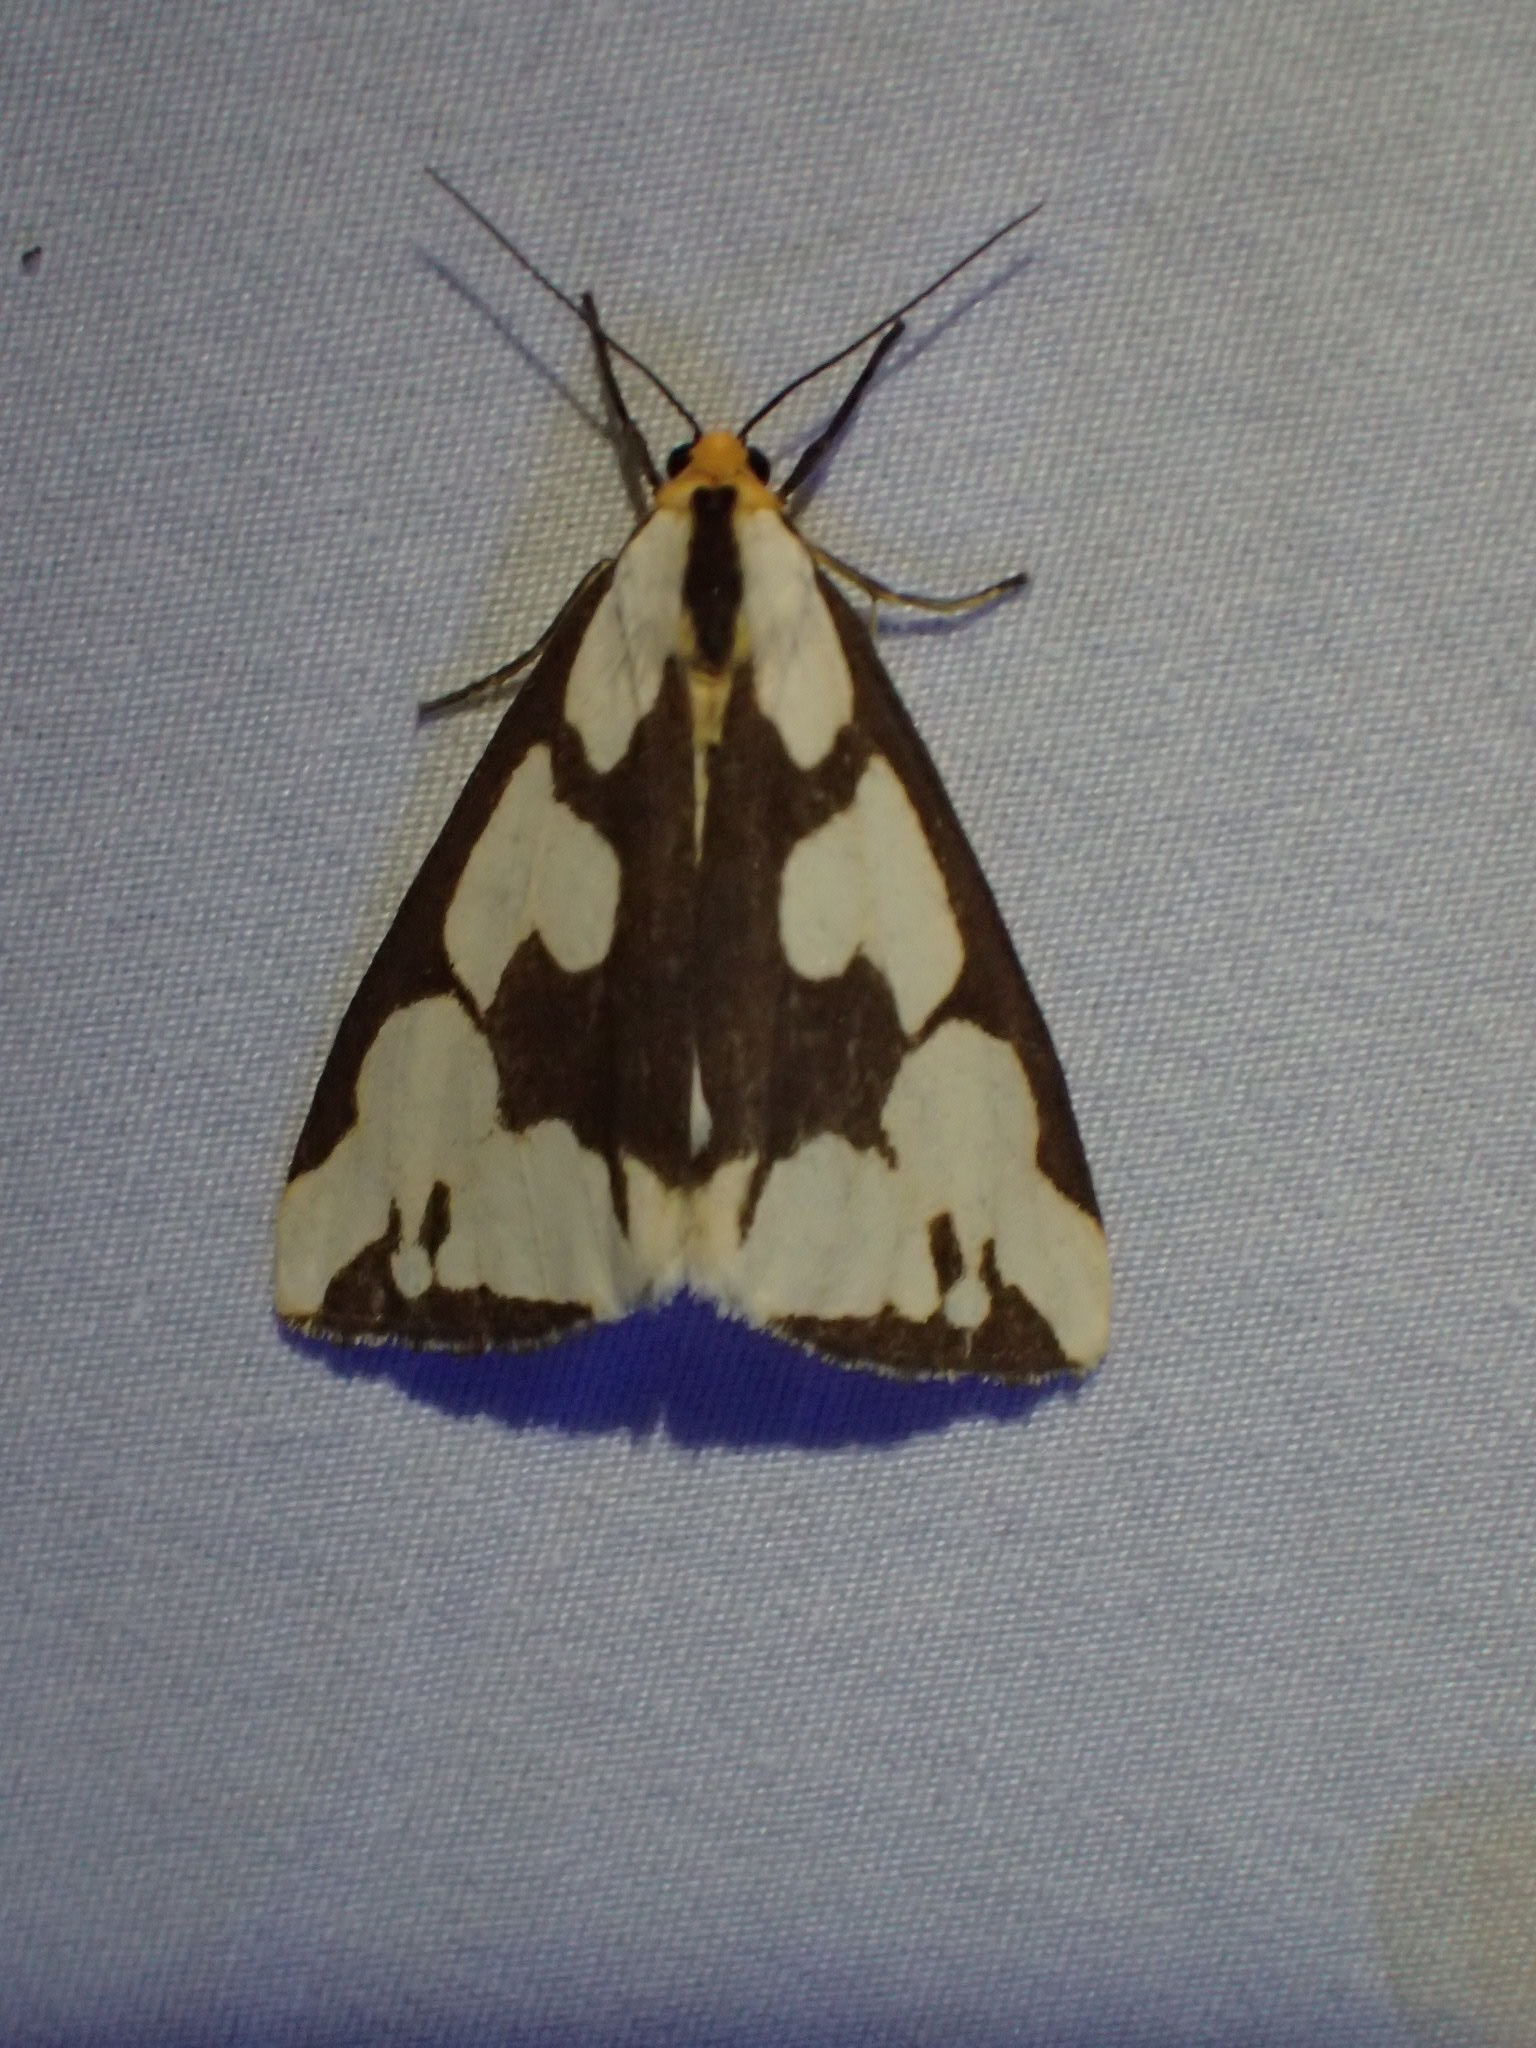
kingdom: Animalia
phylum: Arthropoda
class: Insecta
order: Lepidoptera
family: Erebidae
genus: Haploa
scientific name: Haploa confusa
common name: Confused haploa moth
